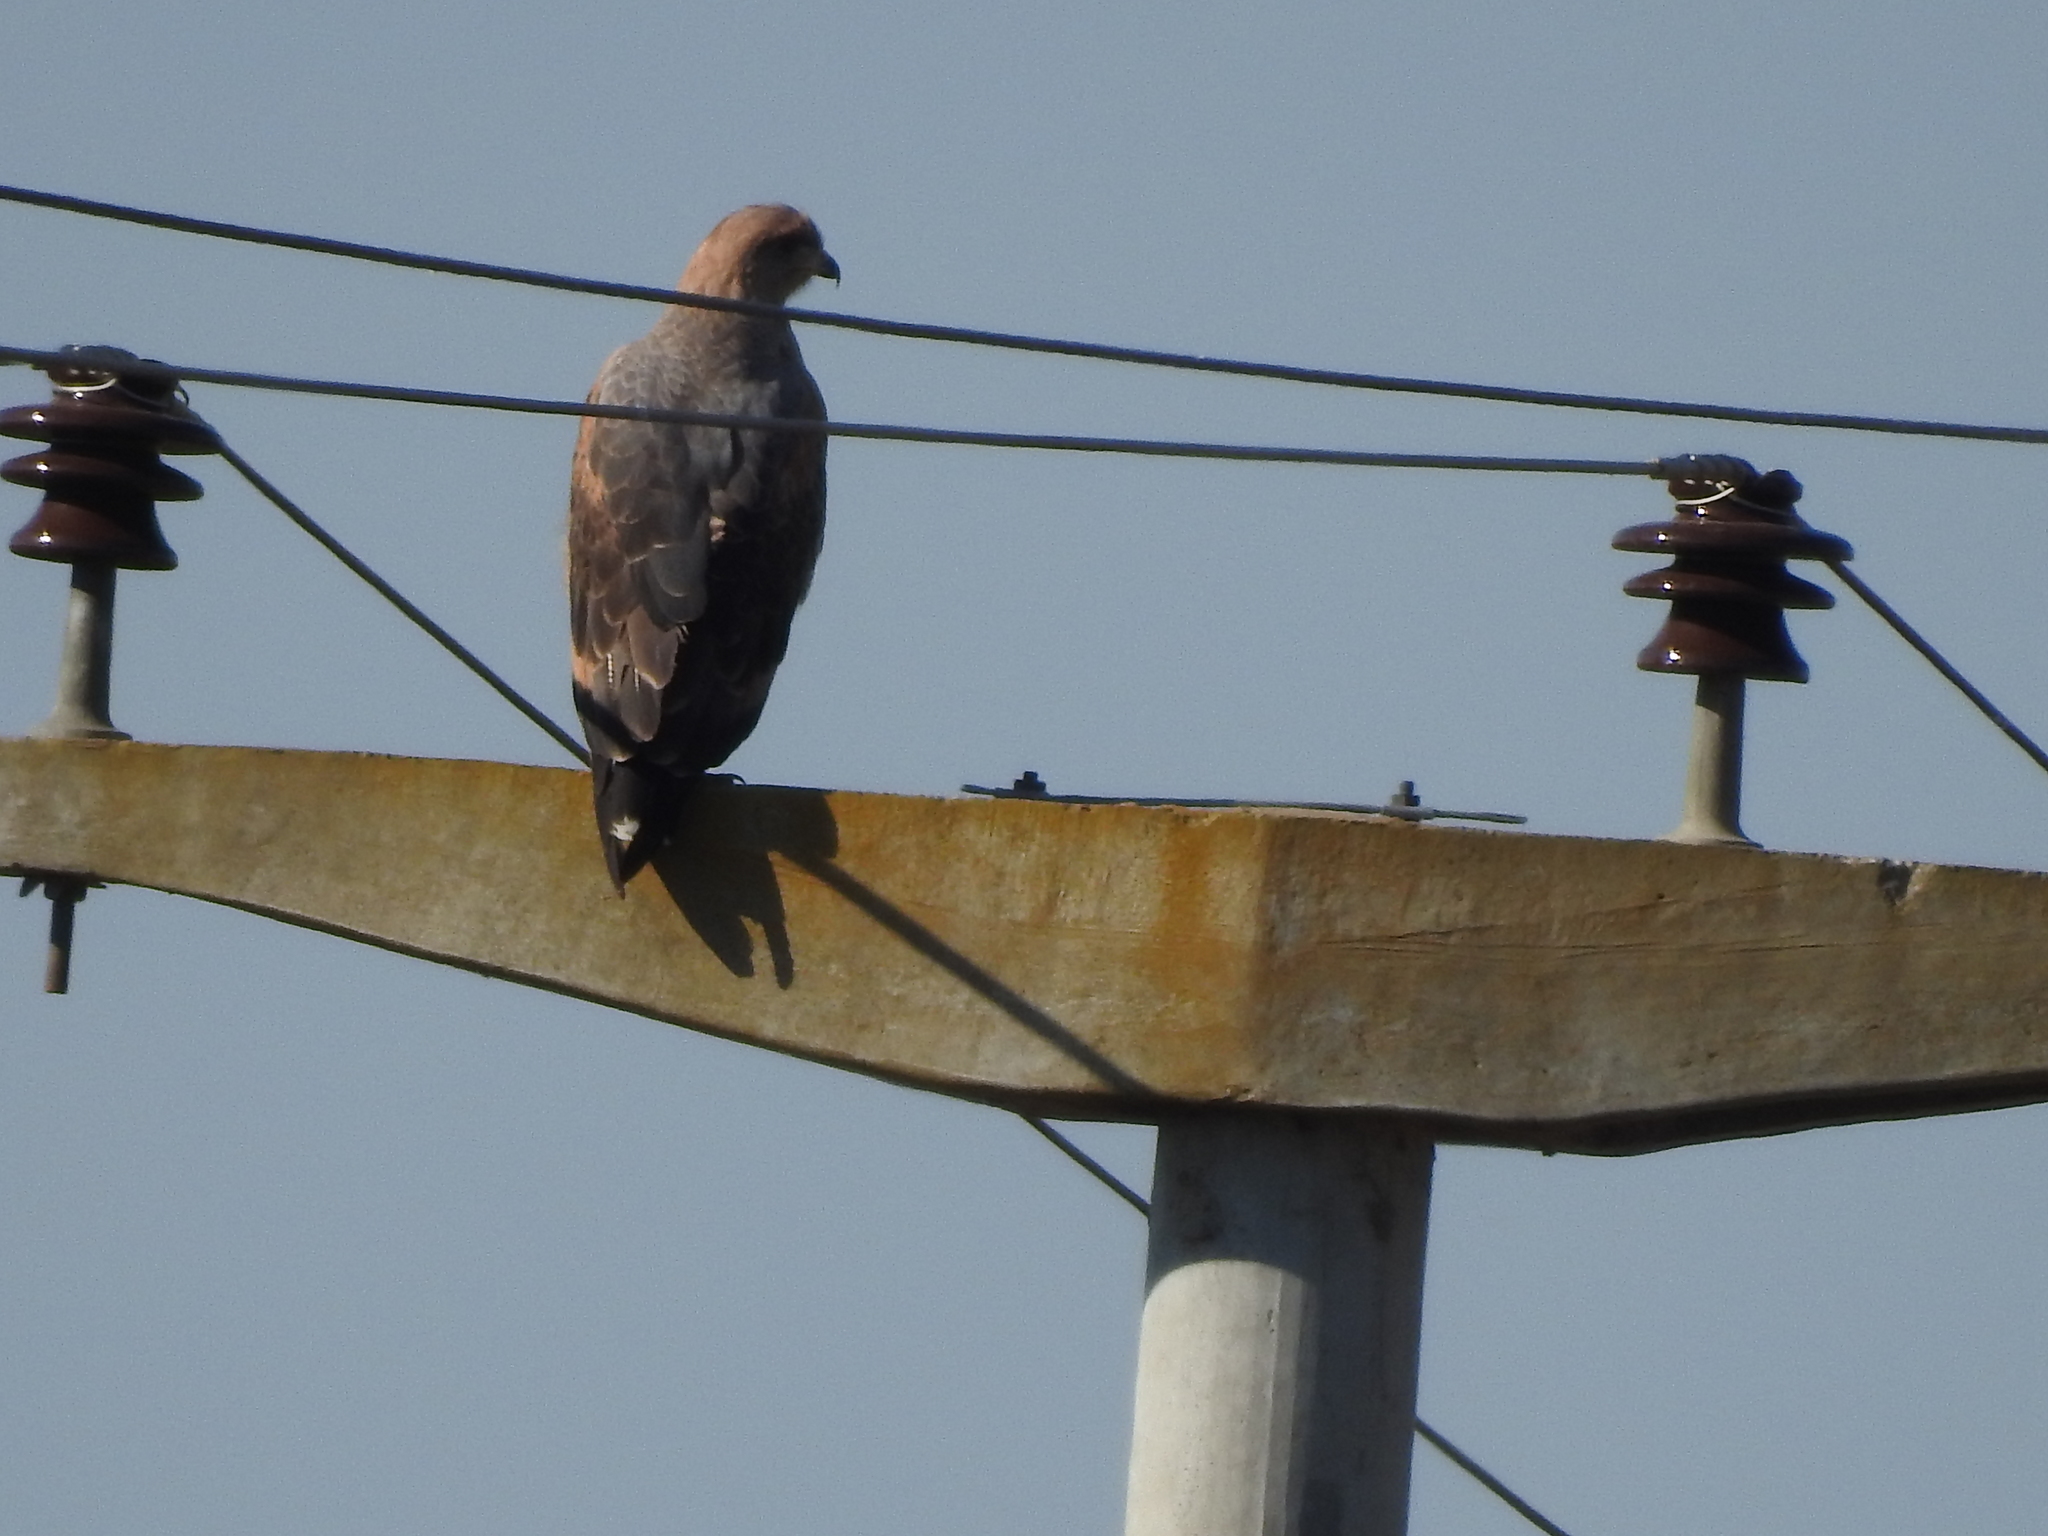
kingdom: Animalia
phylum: Chordata
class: Aves
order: Accipitriformes
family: Accipitridae
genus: Buteogallus
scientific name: Buteogallus meridionalis
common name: Savanna hawk
